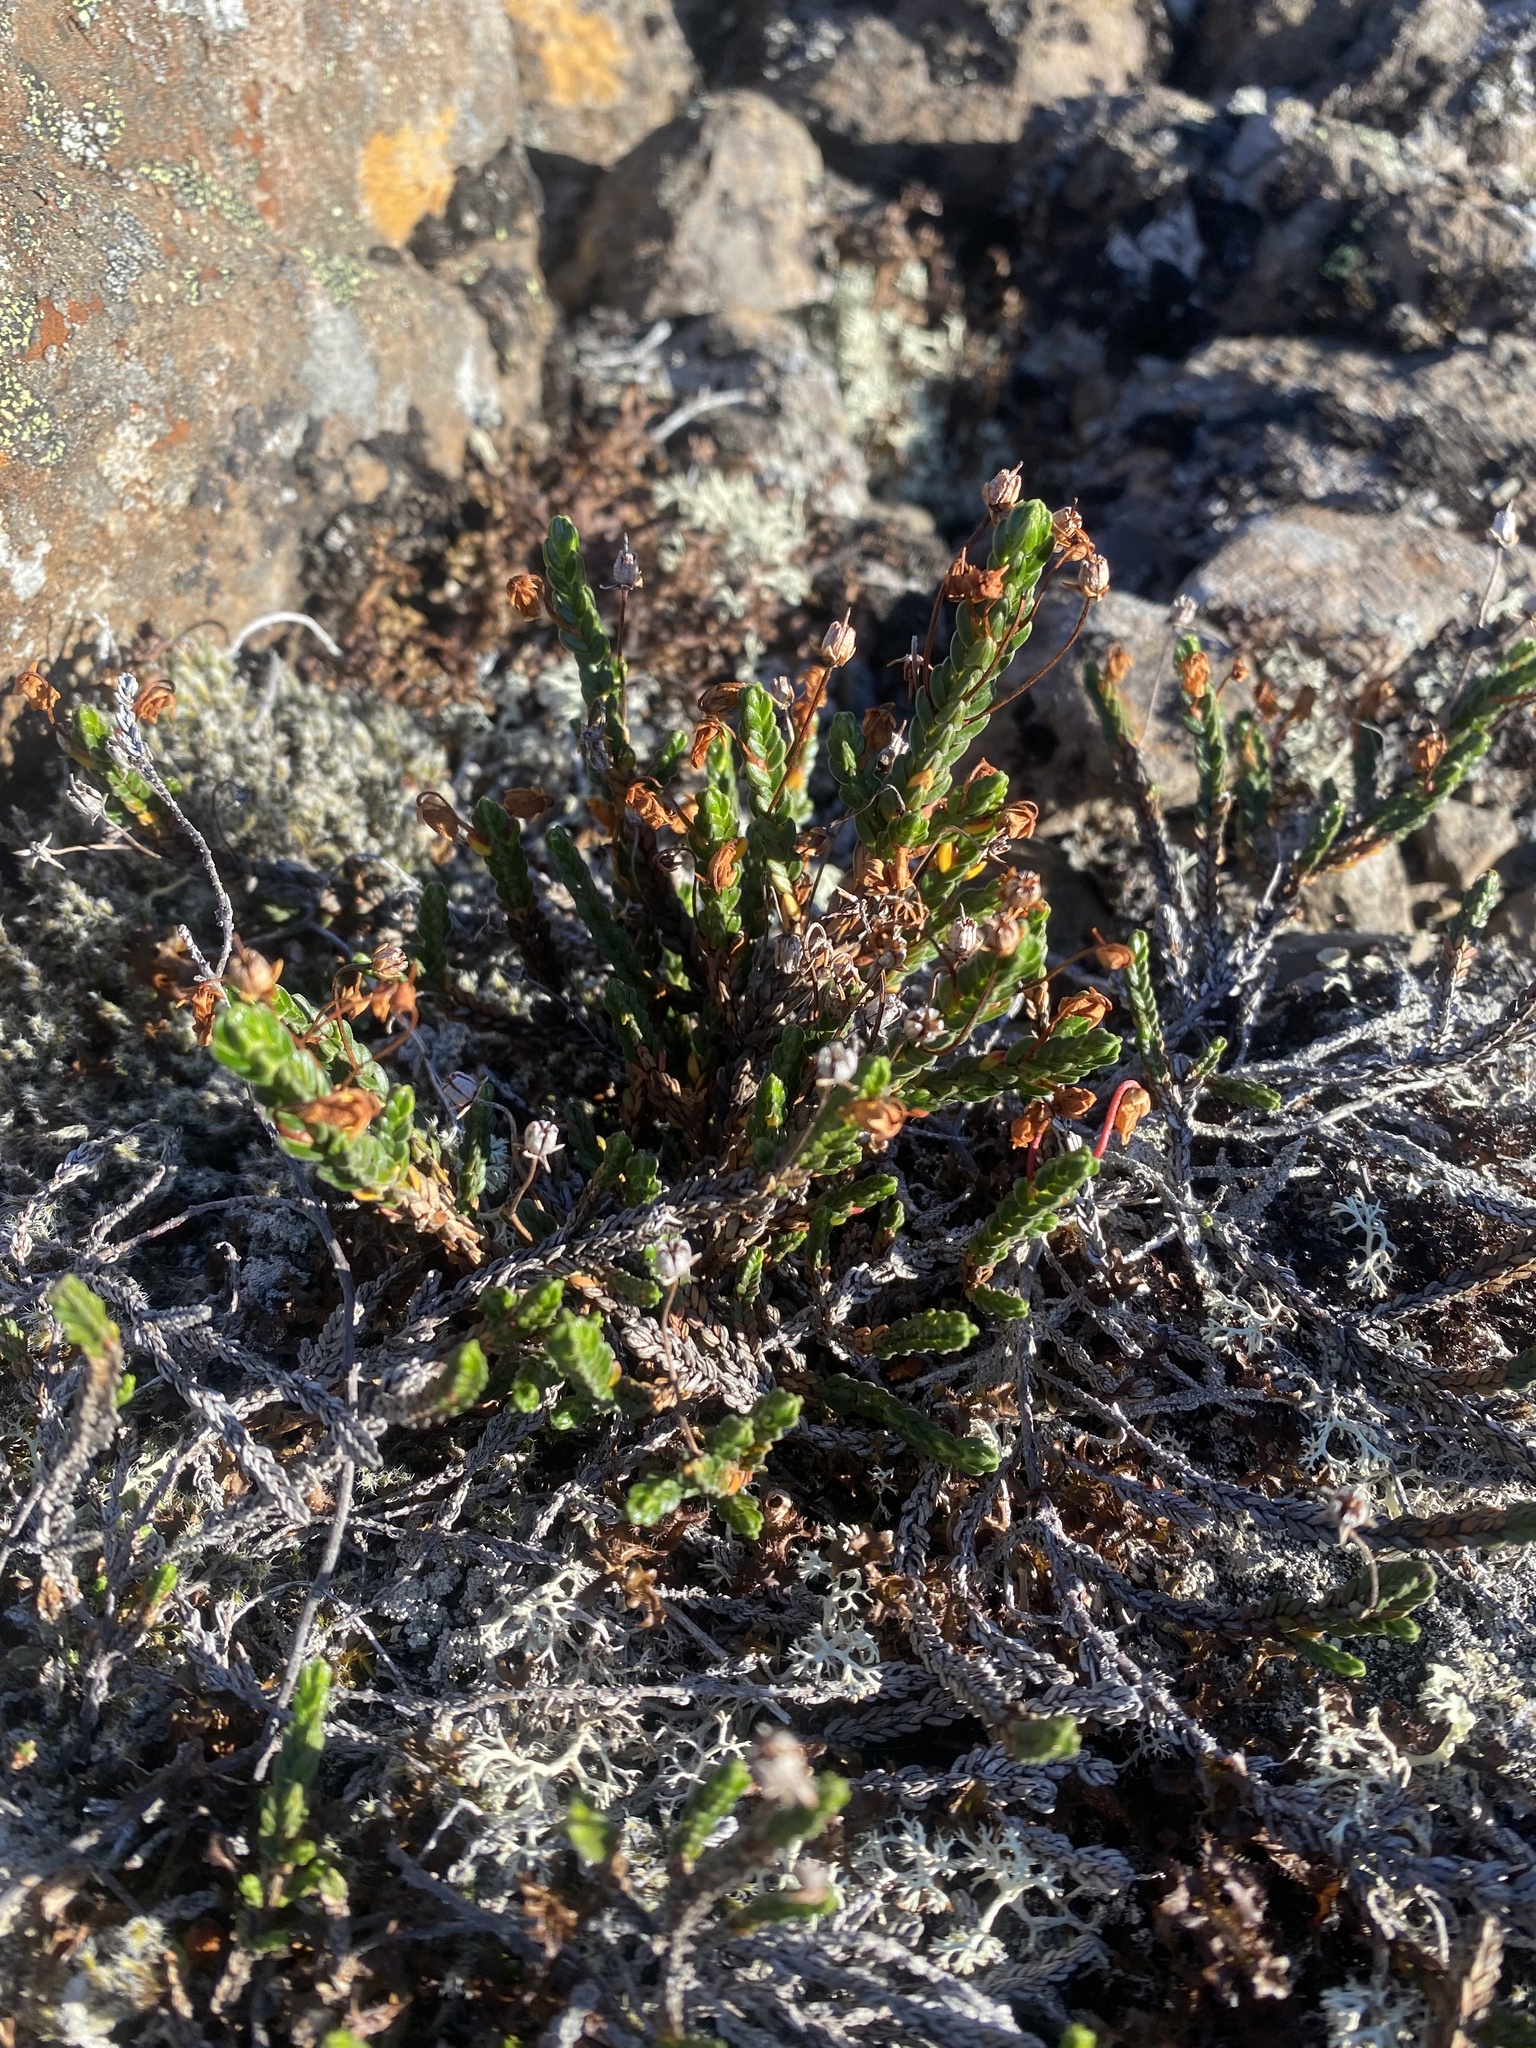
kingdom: Plantae
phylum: Tracheophyta
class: Magnoliopsida
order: Ericales
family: Ericaceae
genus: Cassiope
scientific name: Cassiope tetragona
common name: Arctic bell heather
